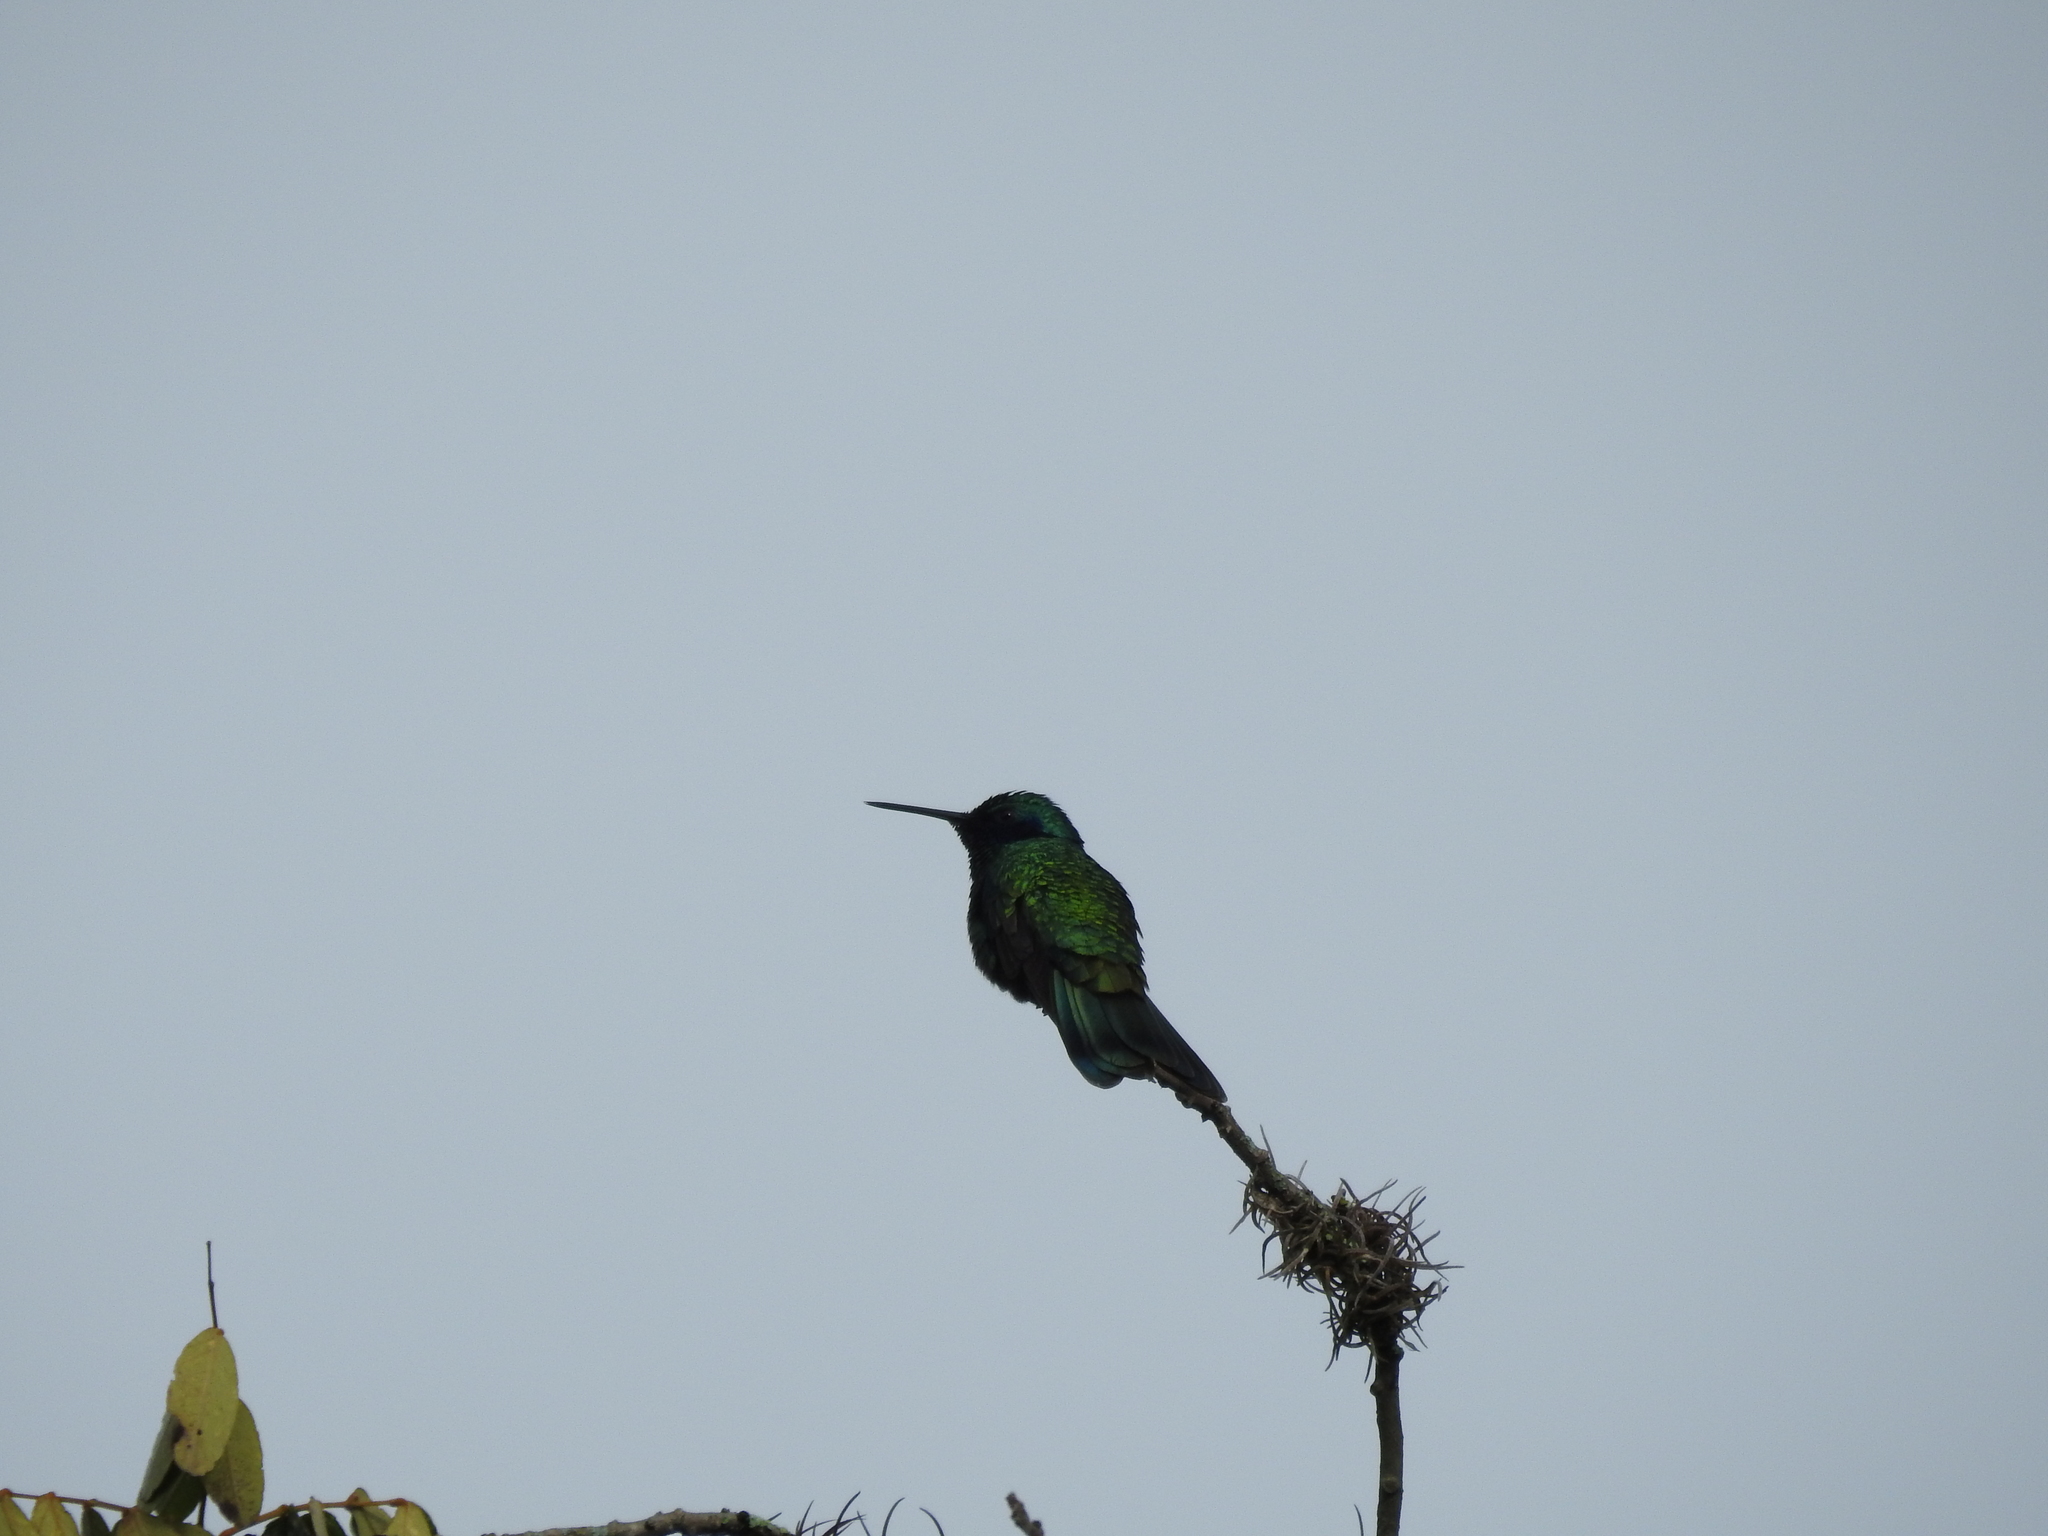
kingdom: Animalia
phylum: Chordata
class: Aves
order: Apodiformes
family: Trochilidae
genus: Colibri
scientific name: Colibri coruscans
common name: Sparkling violetear
